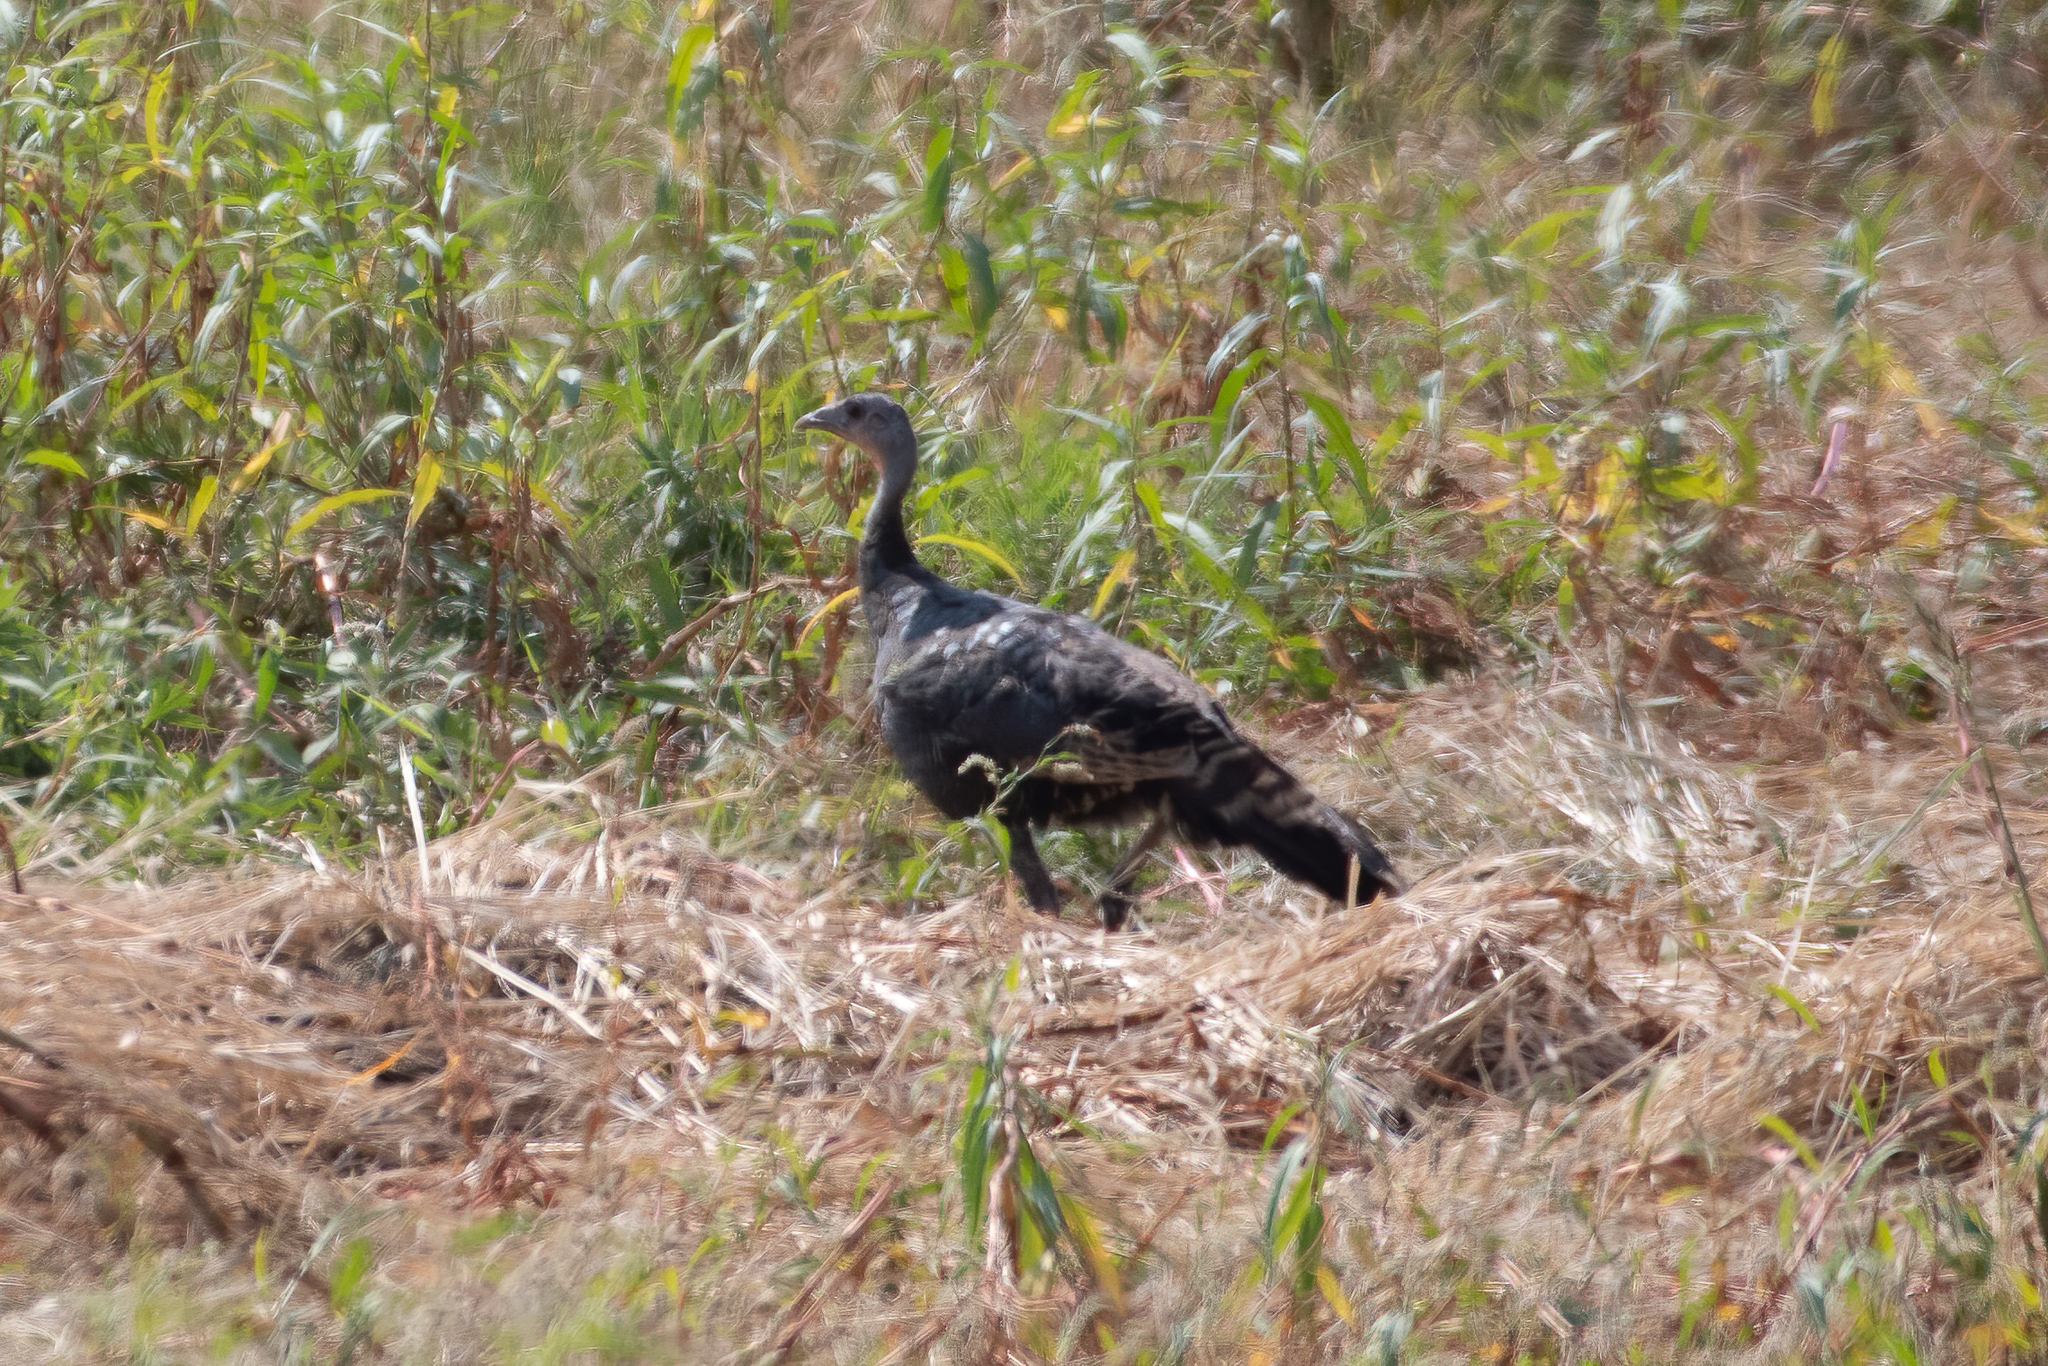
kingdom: Animalia
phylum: Chordata
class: Aves
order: Galliformes
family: Phasianidae
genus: Meleagris
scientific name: Meleagris gallopavo
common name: Wild turkey
